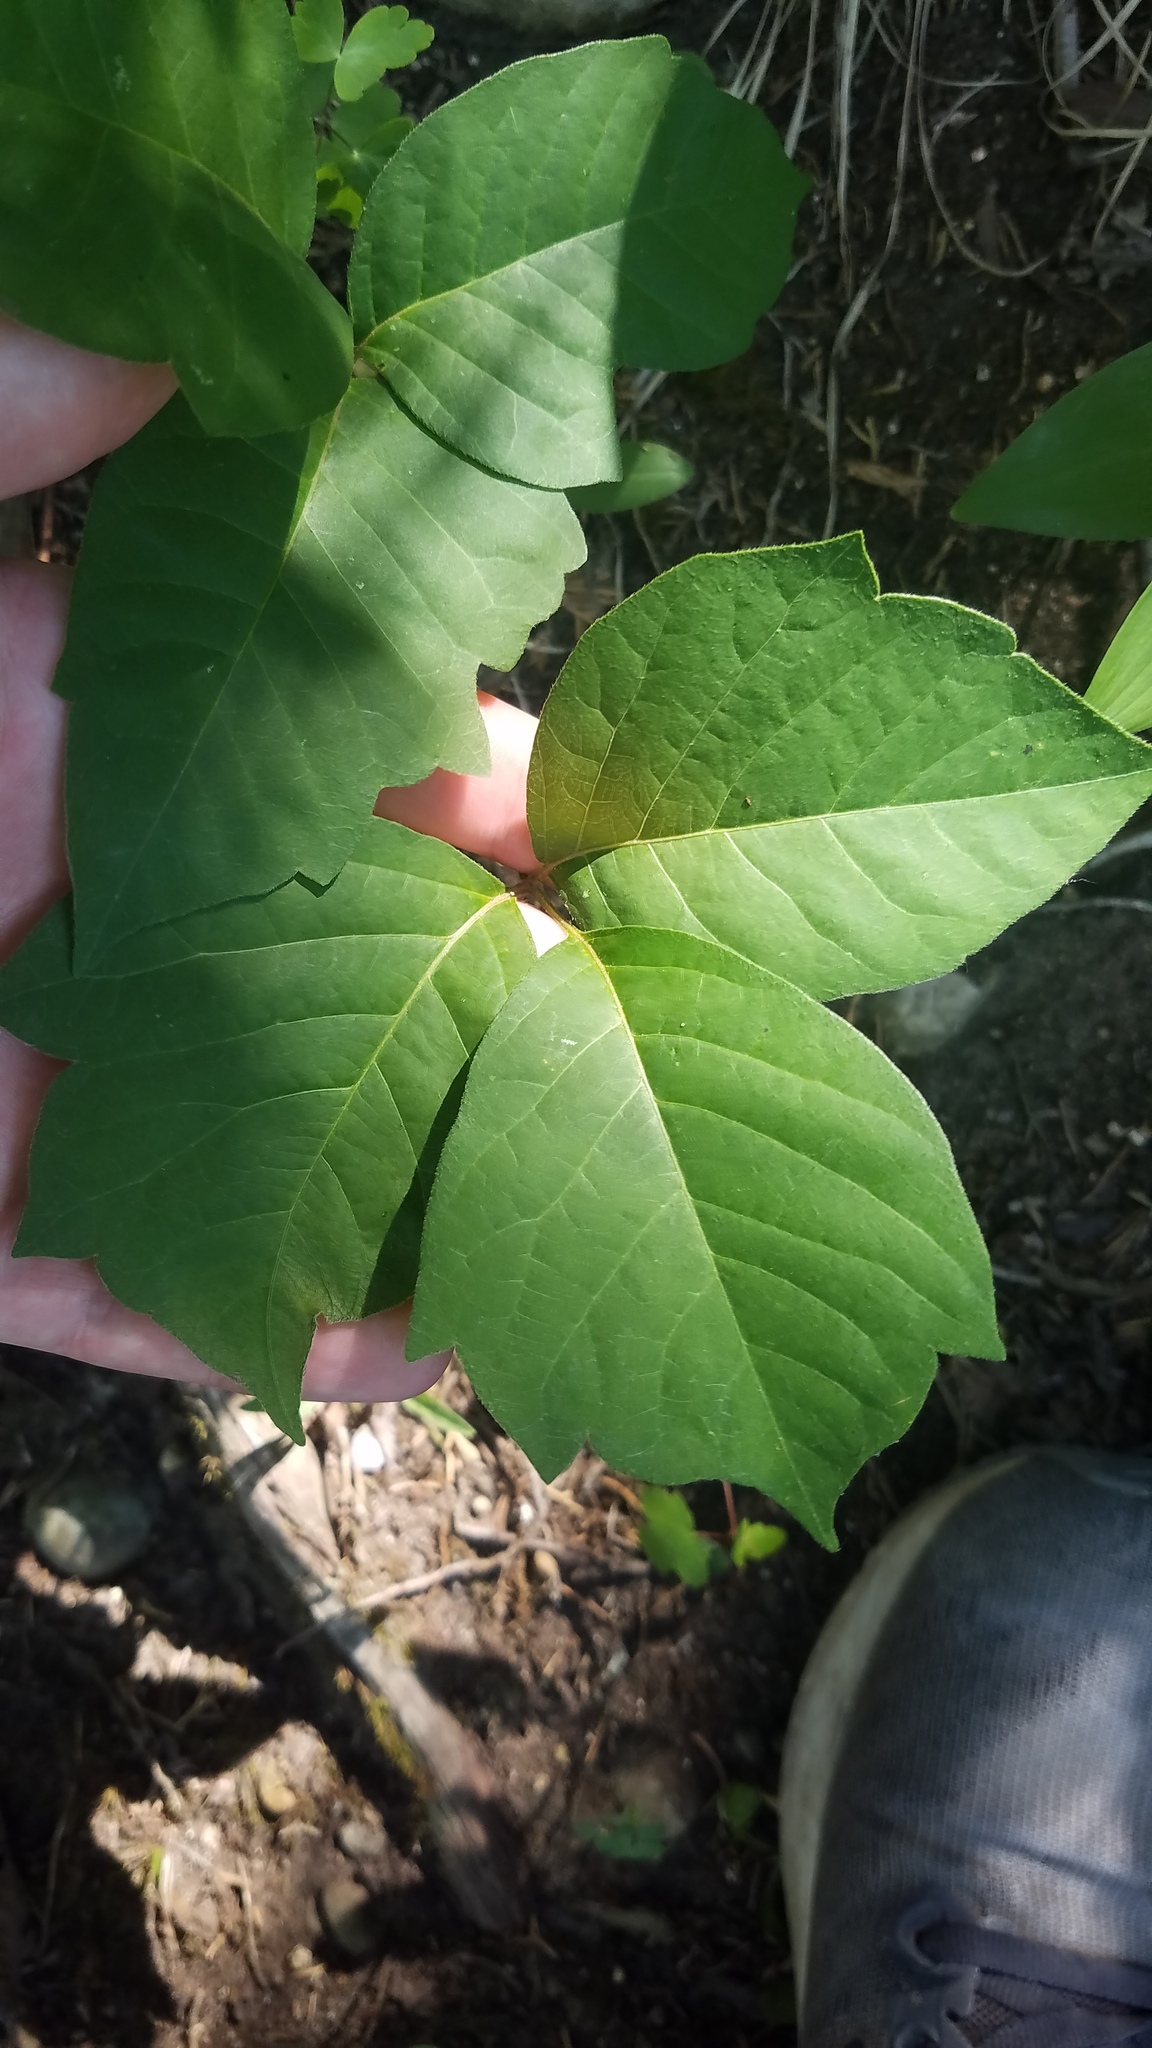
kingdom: Plantae
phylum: Tracheophyta
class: Magnoliopsida
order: Sapindales
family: Anacardiaceae
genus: Toxicodendron
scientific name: Toxicodendron rydbergii
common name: Rydberg's poison-ivy
